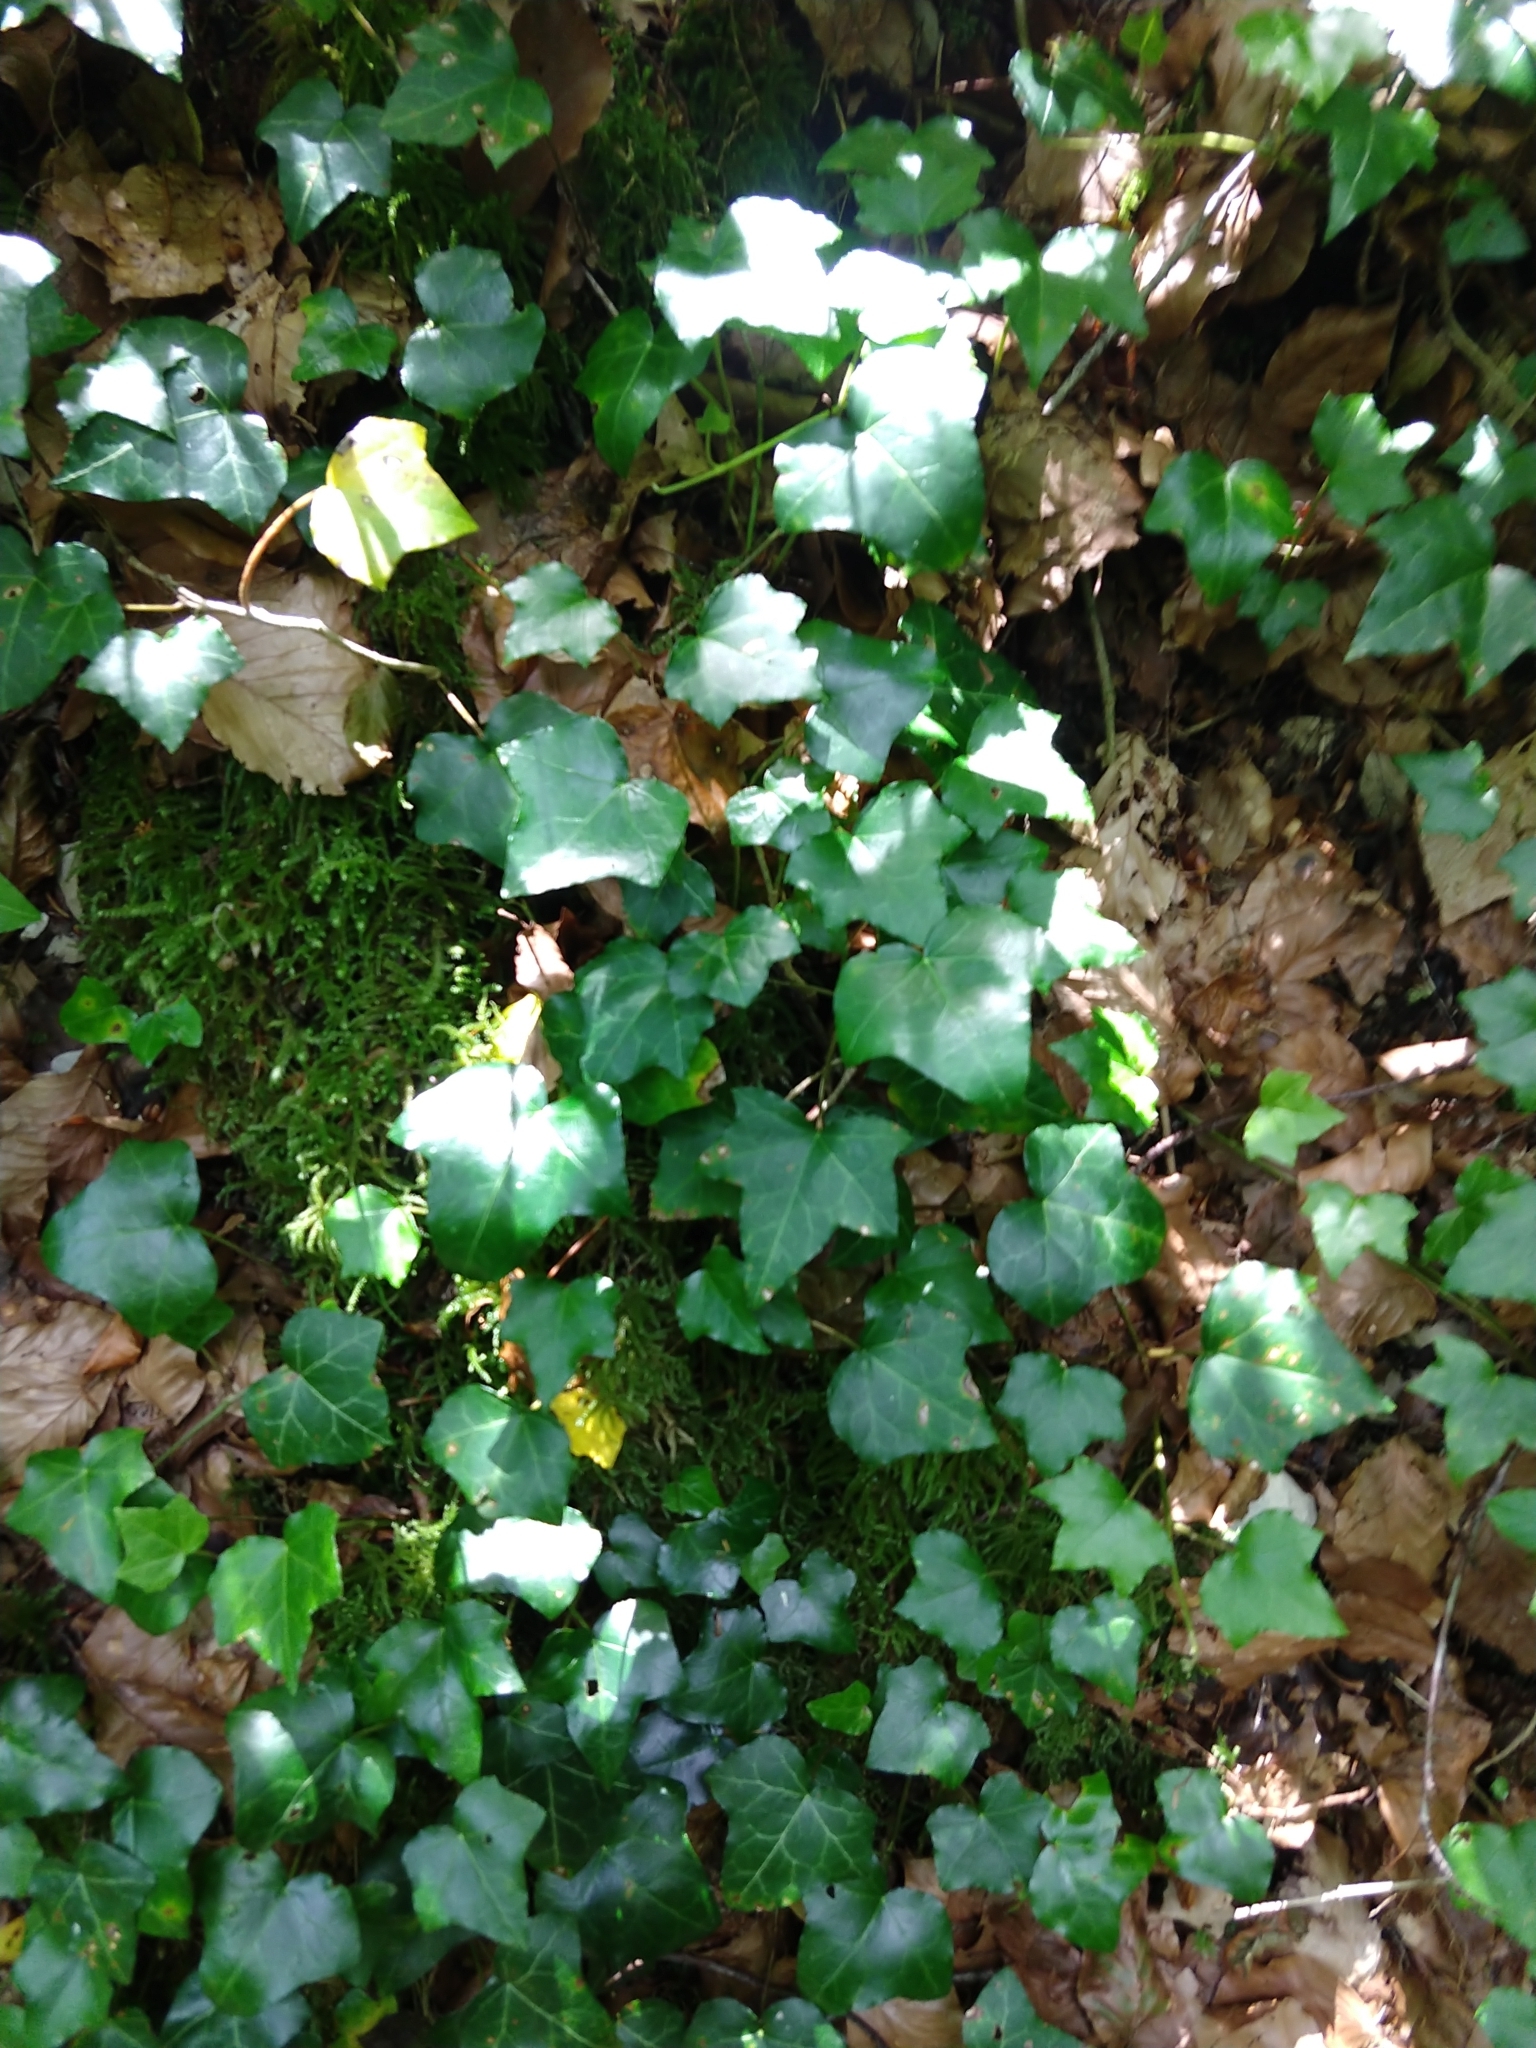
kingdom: Plantae
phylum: Tracheophyta
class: Magnoliopsida
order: Apiales
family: Araliaceae
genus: Hedera
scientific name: Hedera helix
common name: Ivy
